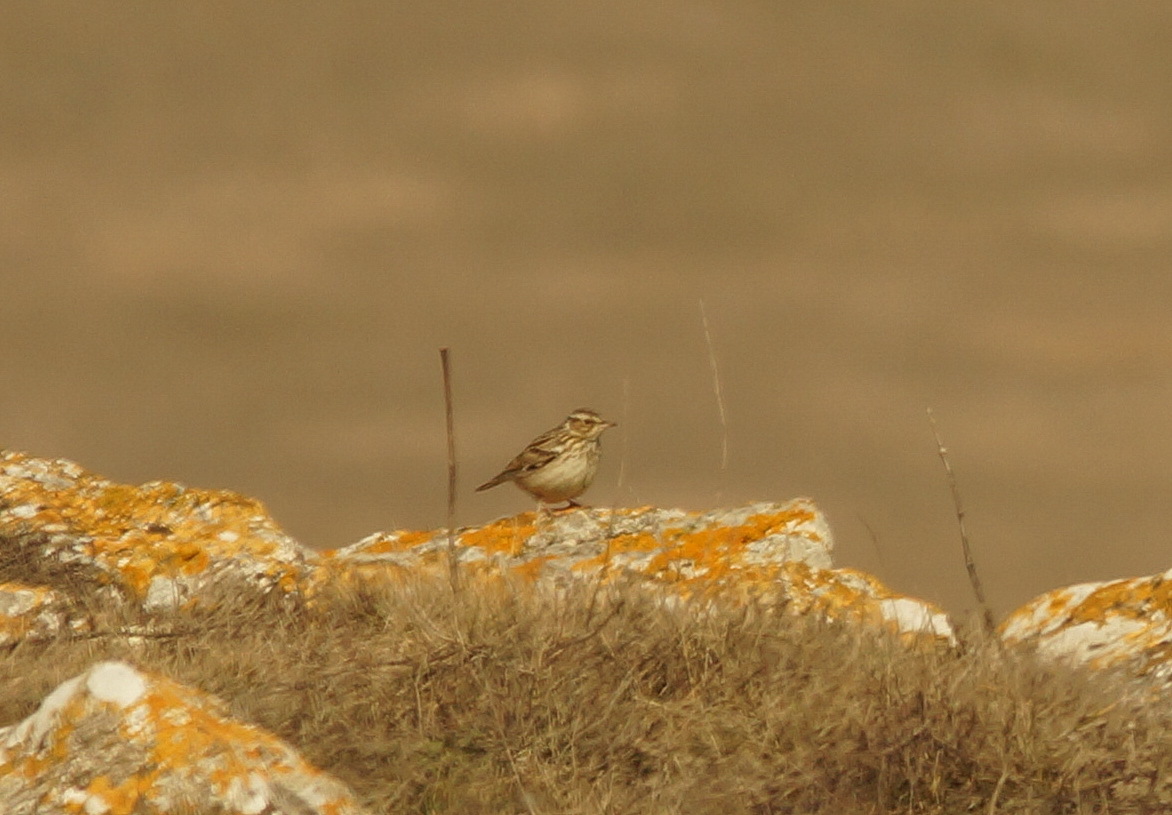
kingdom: Animalia
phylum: Chordata
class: Aves
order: Passeriformes
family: Alaudidae
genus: Lullula
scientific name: Lullula arborea
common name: Woodlark
